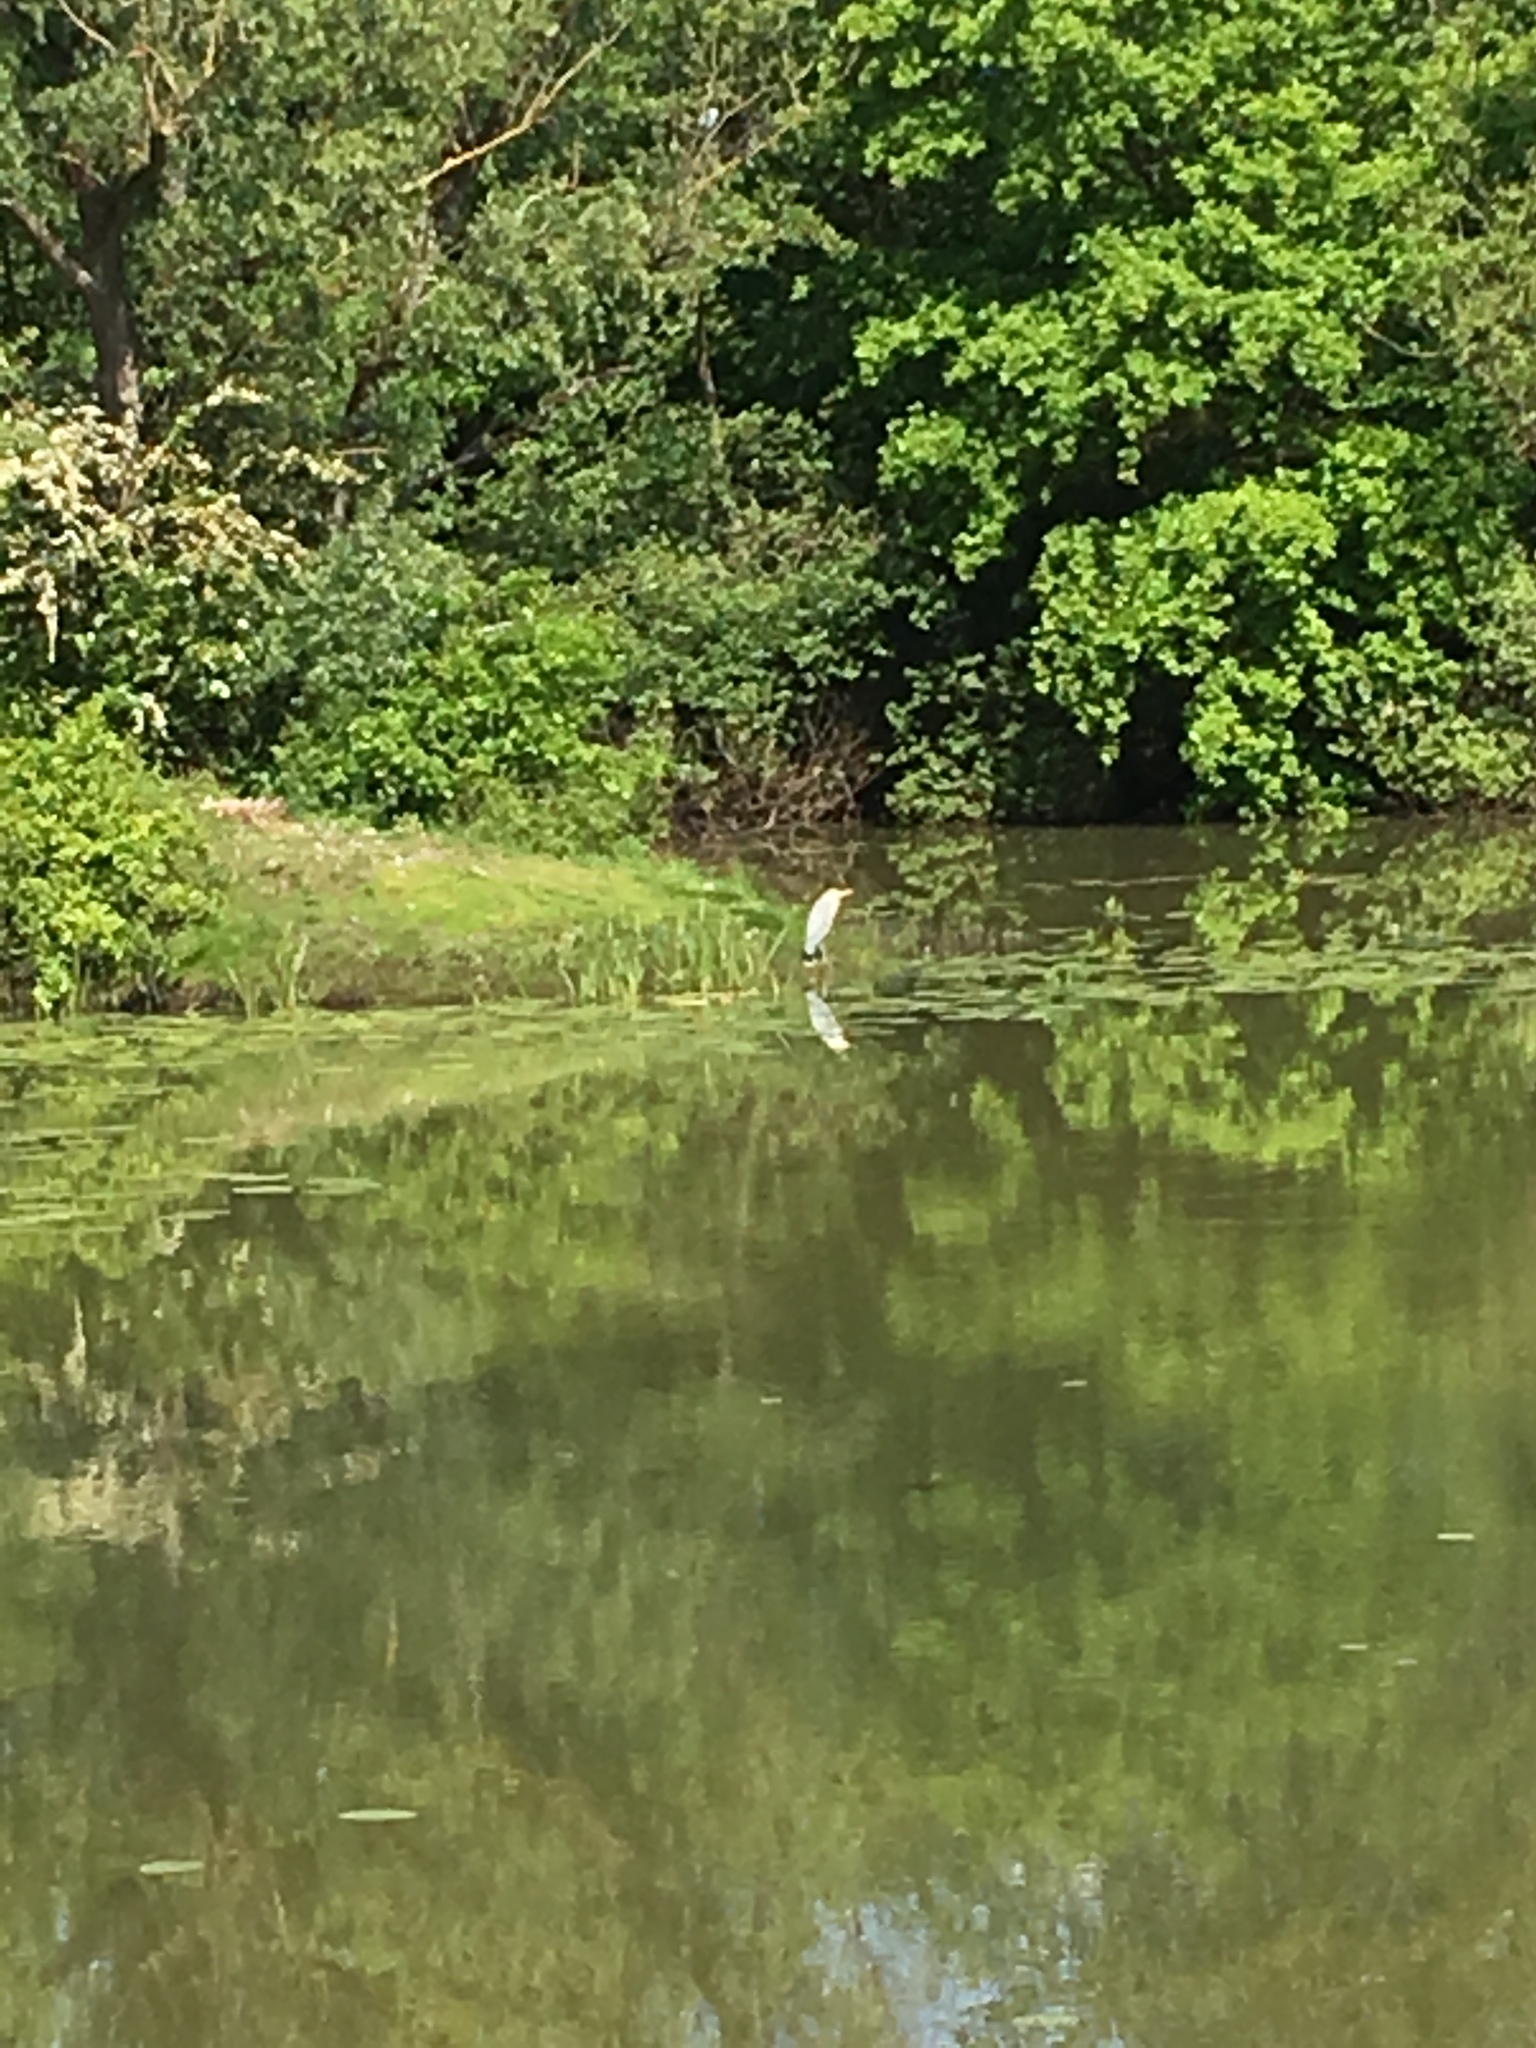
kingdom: Animalia
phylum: Chordata
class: Aves
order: Pelecaniformes
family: Ardeidae
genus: Ardea
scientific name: Ardea cinerea
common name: Grey heron
